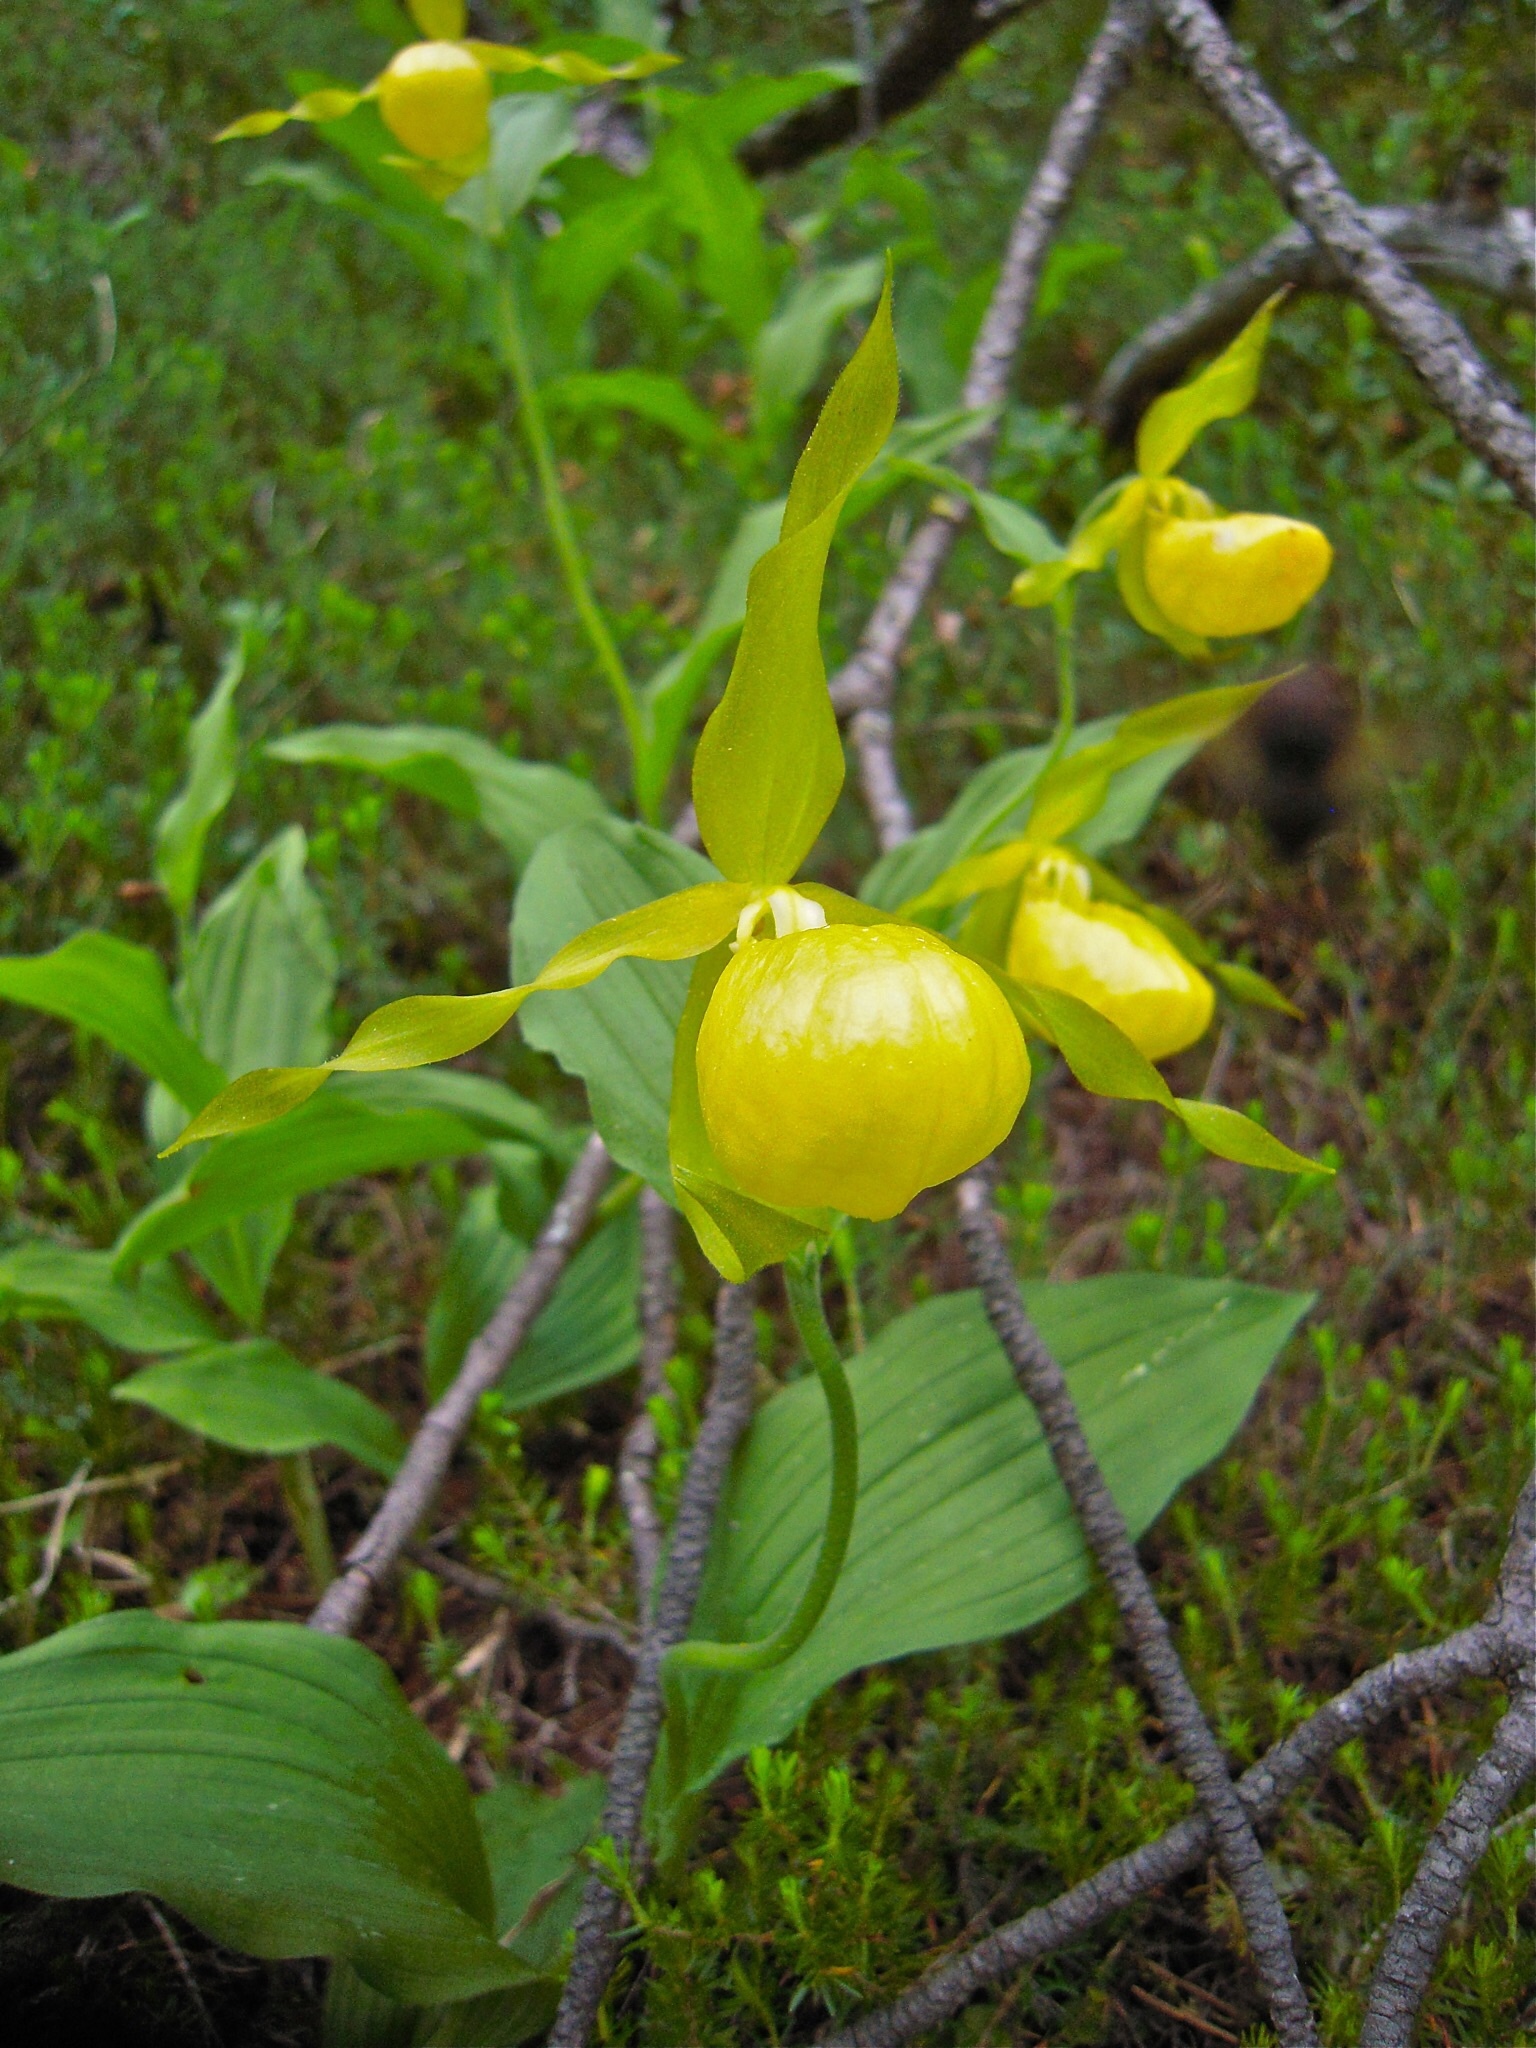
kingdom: Plantae
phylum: Tracheophyta
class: Liliopsida
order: Asparagales
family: Orchidaceae
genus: Cypripedium
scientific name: Cypripedium calceolus
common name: Lady's-slipper
